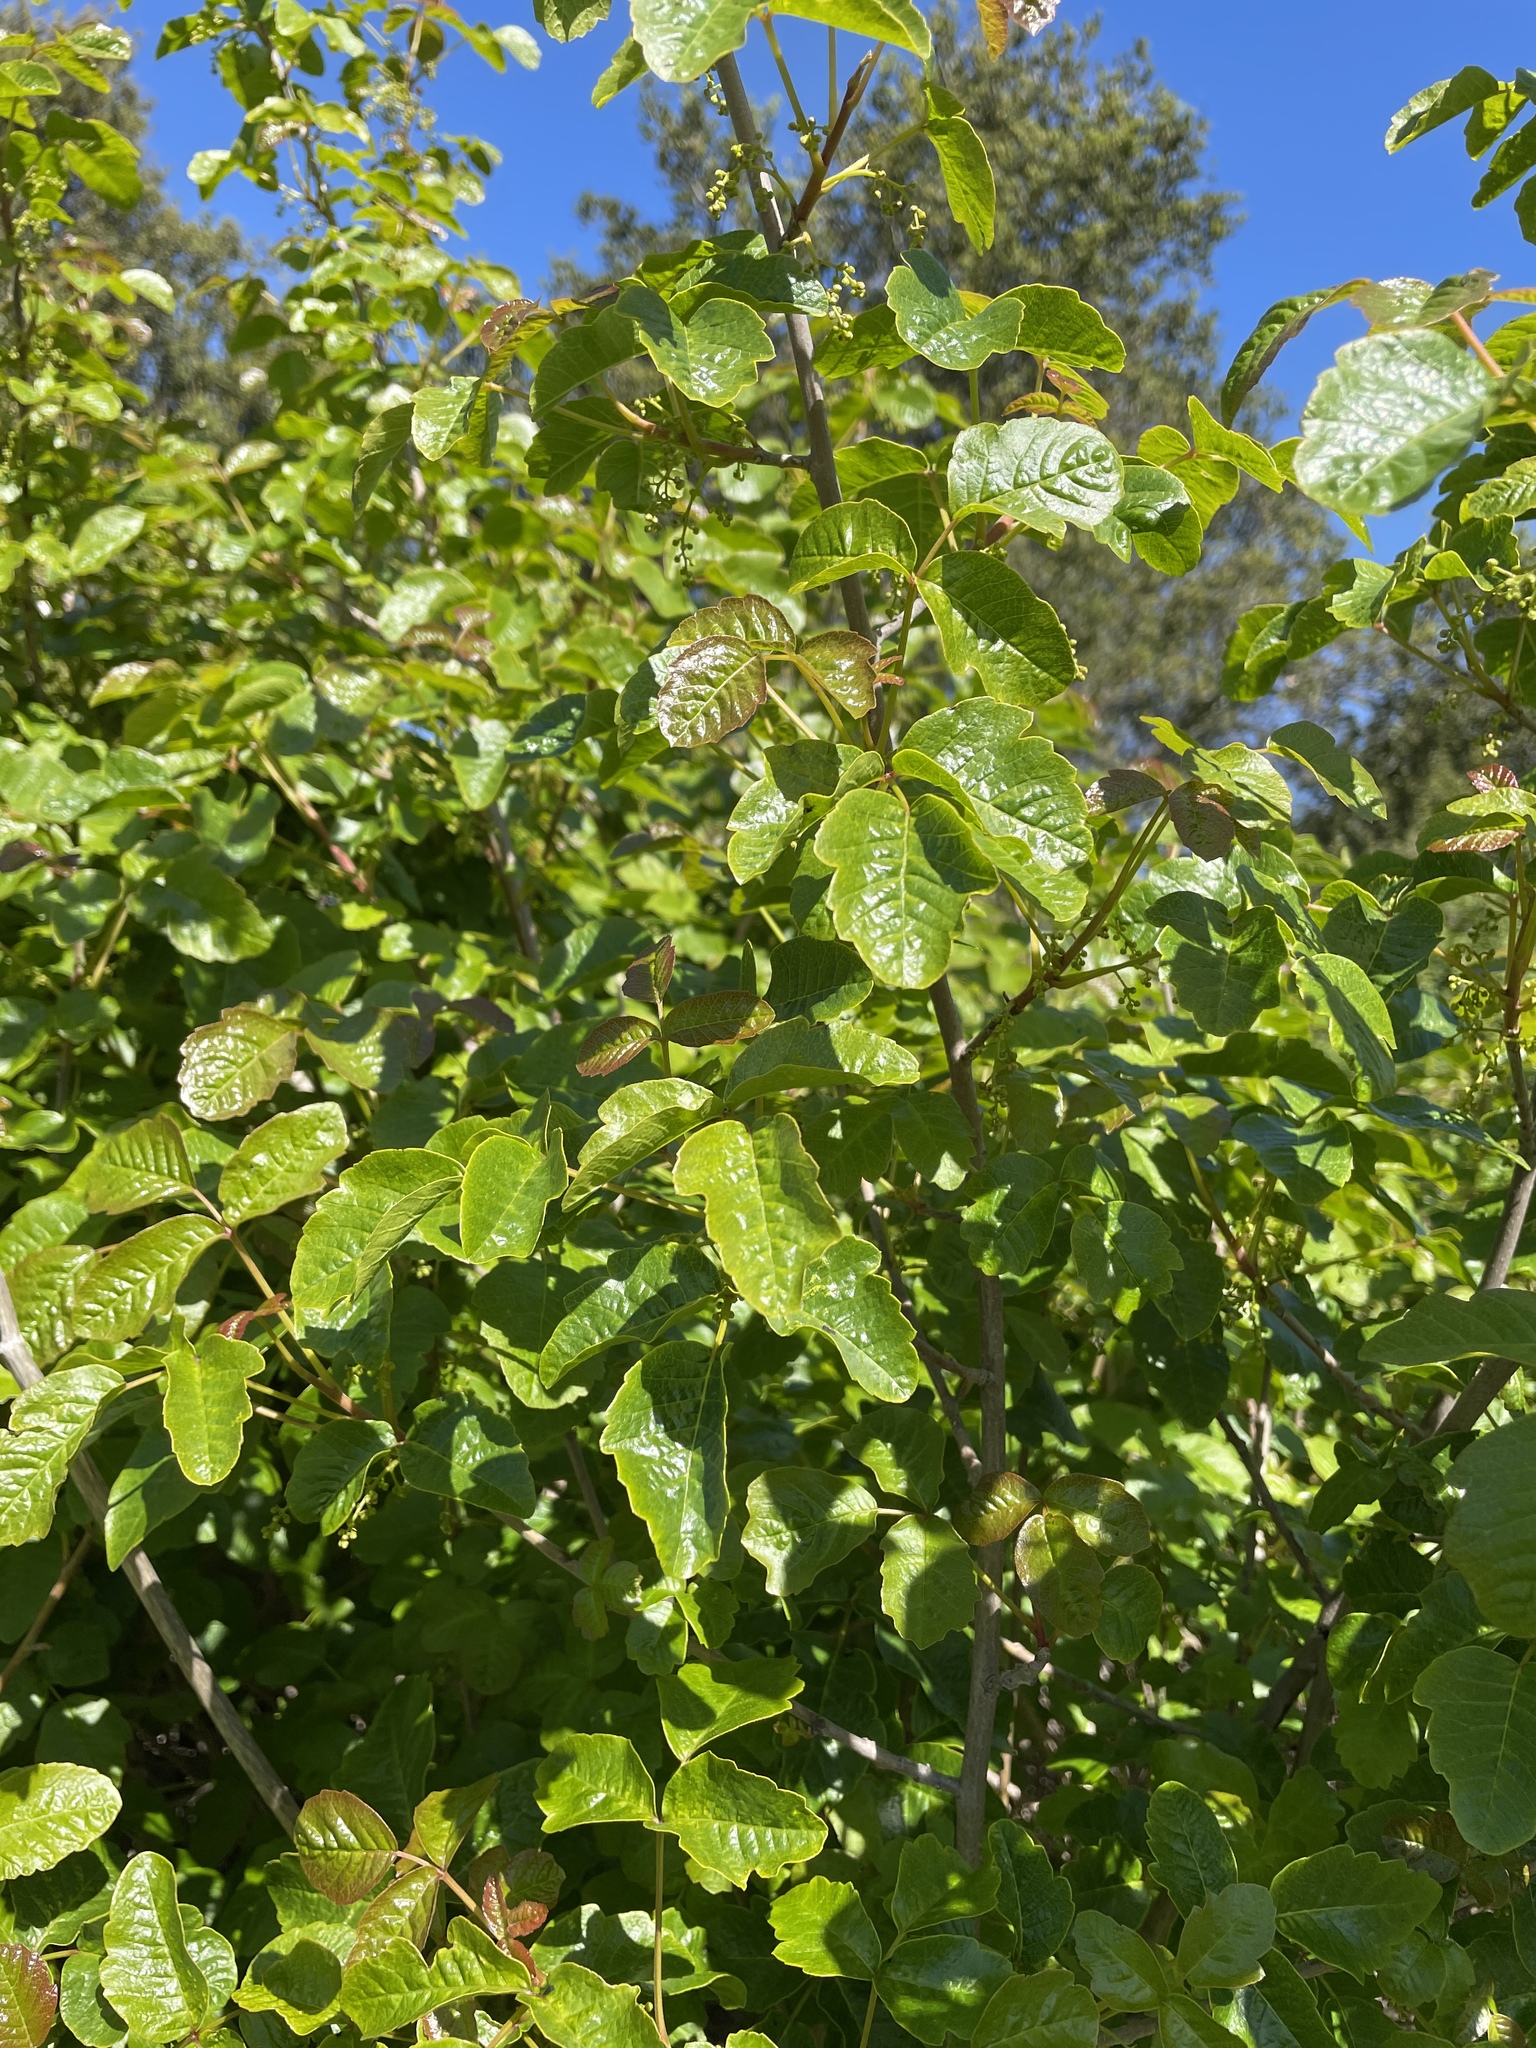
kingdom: Plantae
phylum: Tracheophyta
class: Magnoliopsida
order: Sapindales
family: Anacardiaceae
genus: Toxicodendron
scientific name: Toxicodendron diversilobum
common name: Pacific poison-oak
